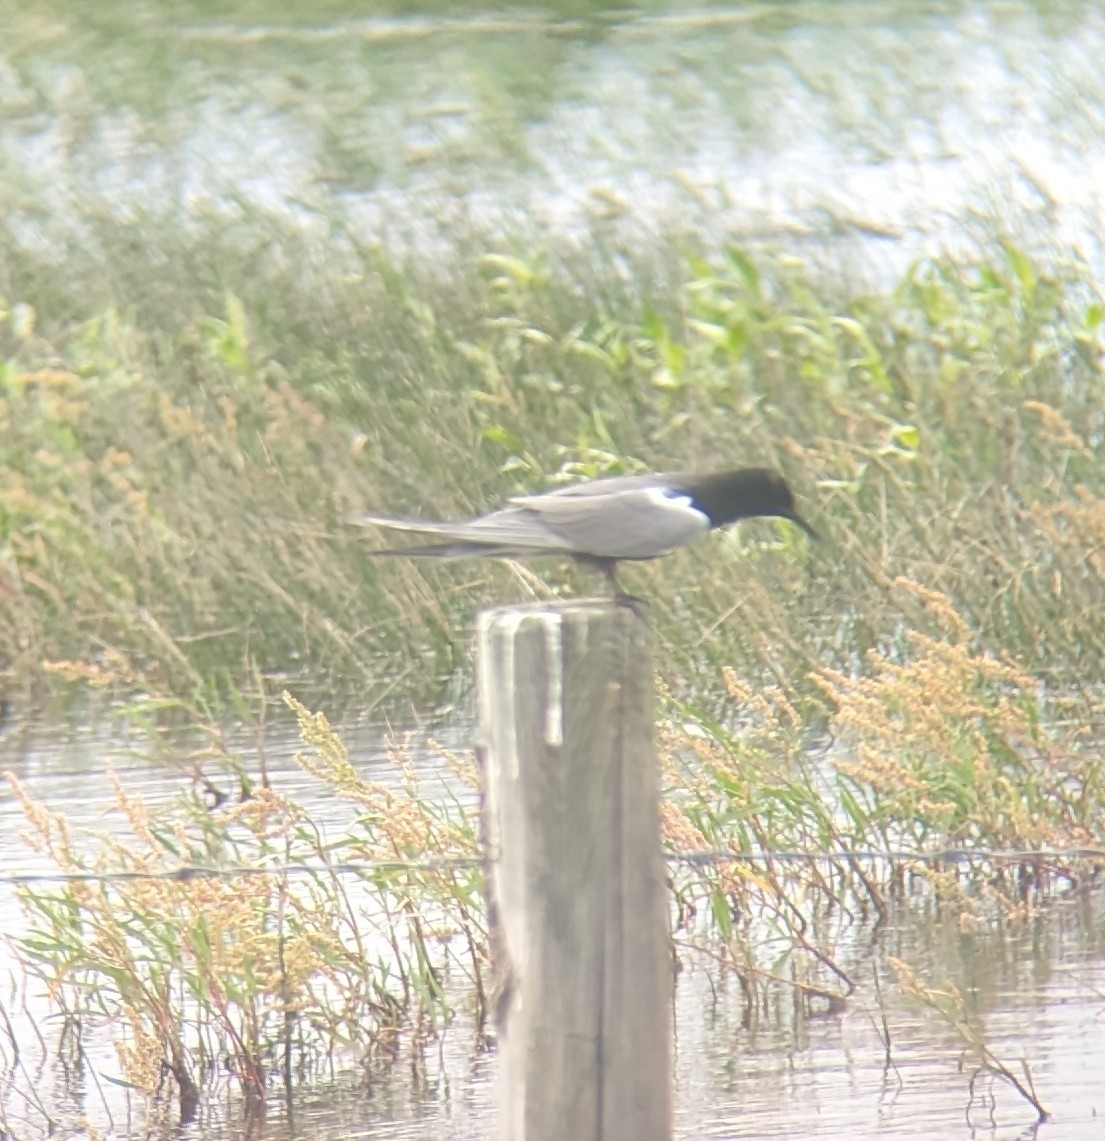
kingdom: Animalia
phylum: Chordata
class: Aves
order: Charadriiformes
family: Laridae
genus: Chlidonias
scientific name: Chlidonias niger
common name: Black tern
